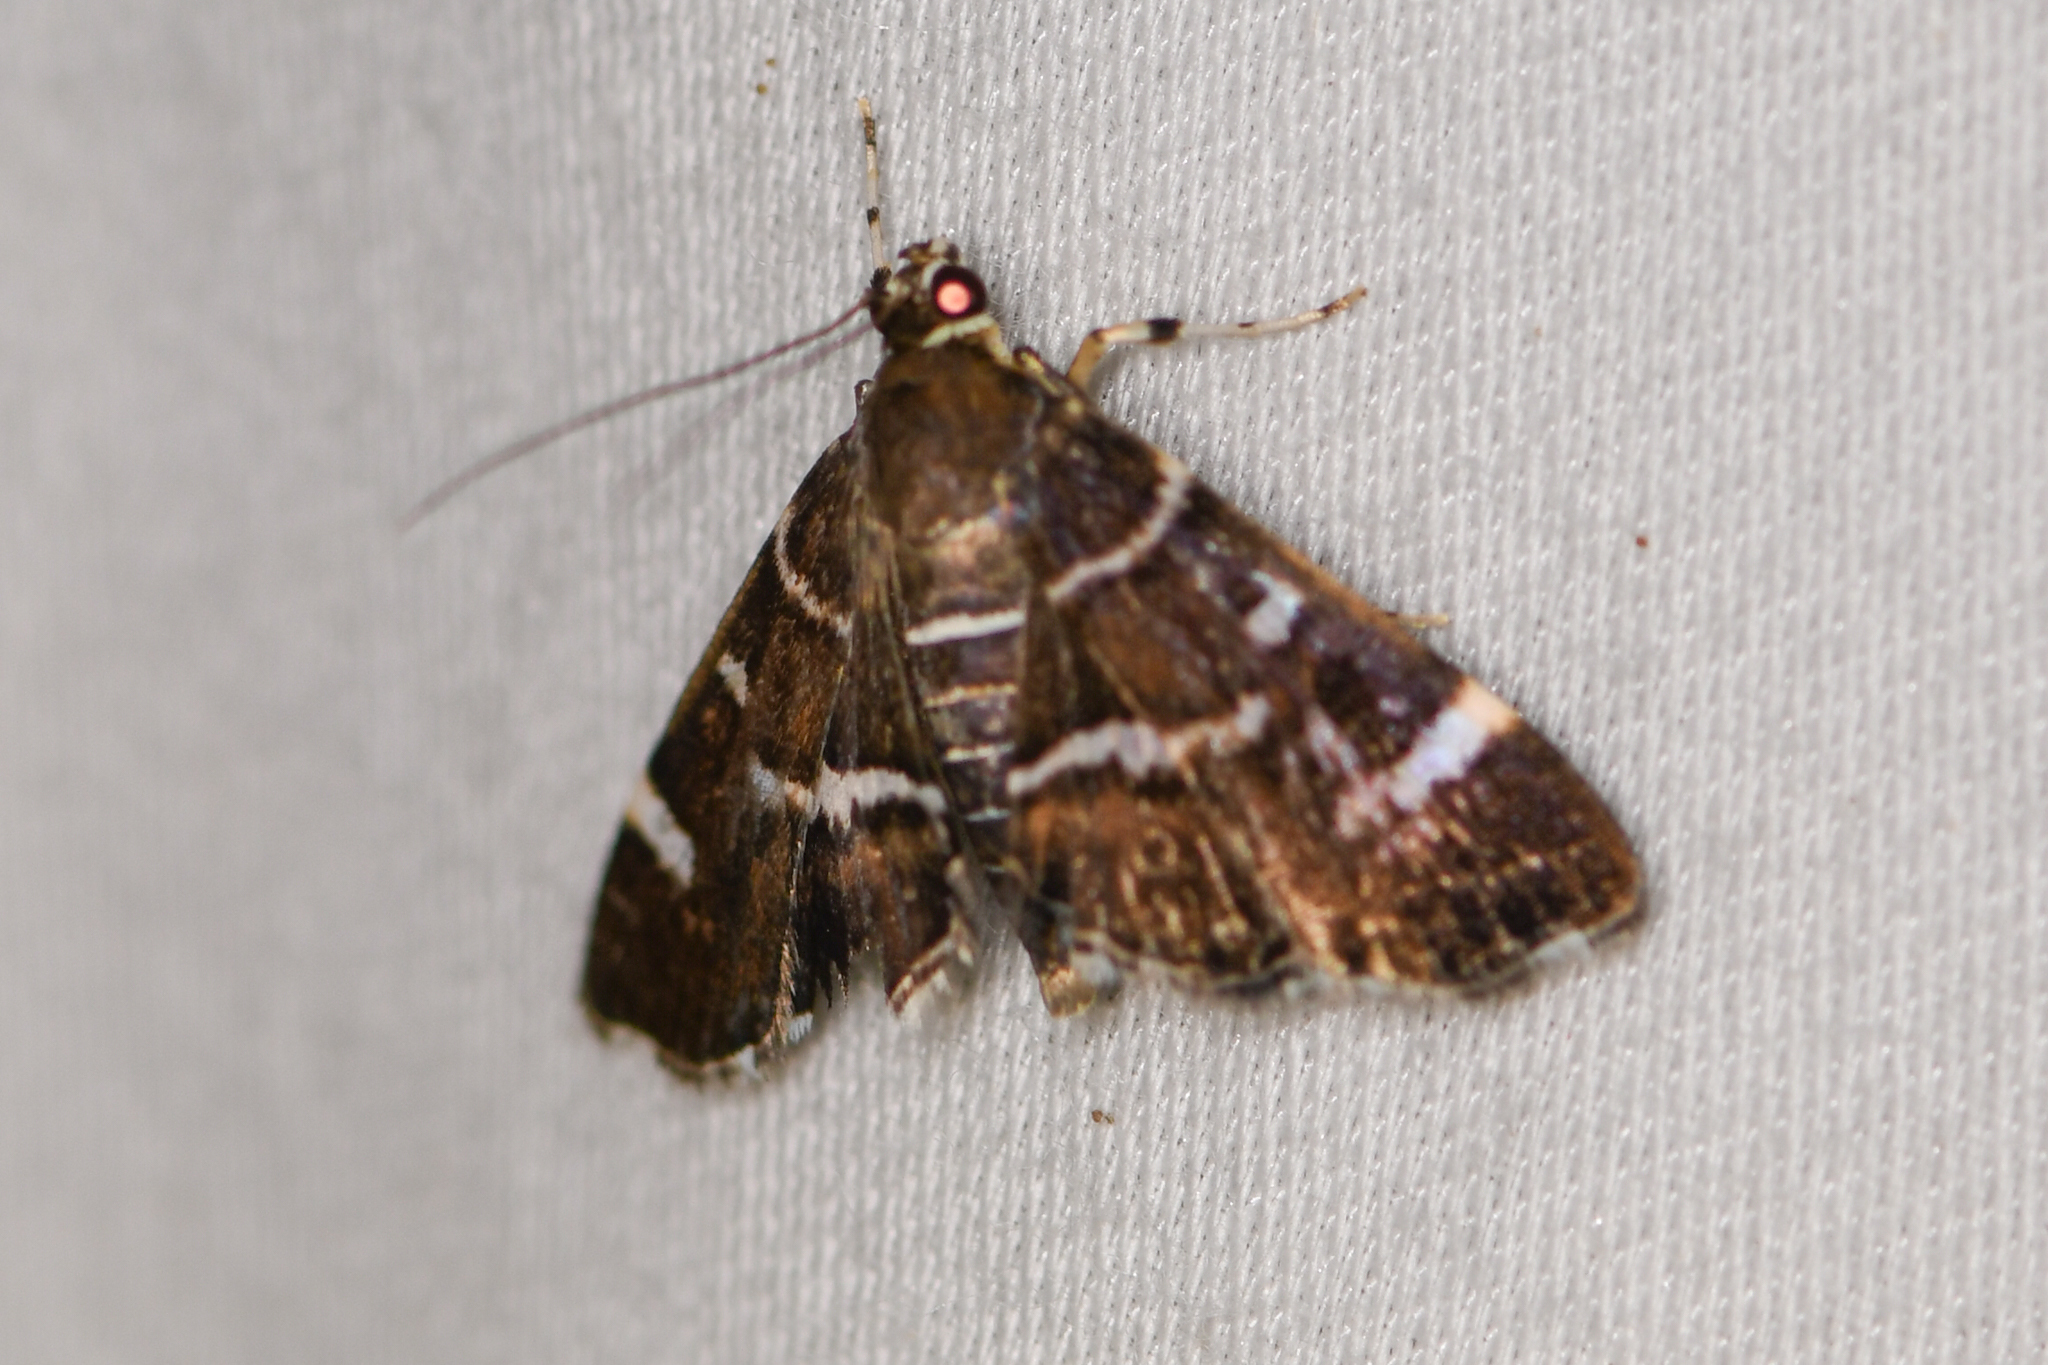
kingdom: Animalia
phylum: Arthropoda
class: Insecta
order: Lepidoptera
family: Crambidae
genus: Hymenia
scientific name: Hymenia perspectalis
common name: Spotted beet webworm
